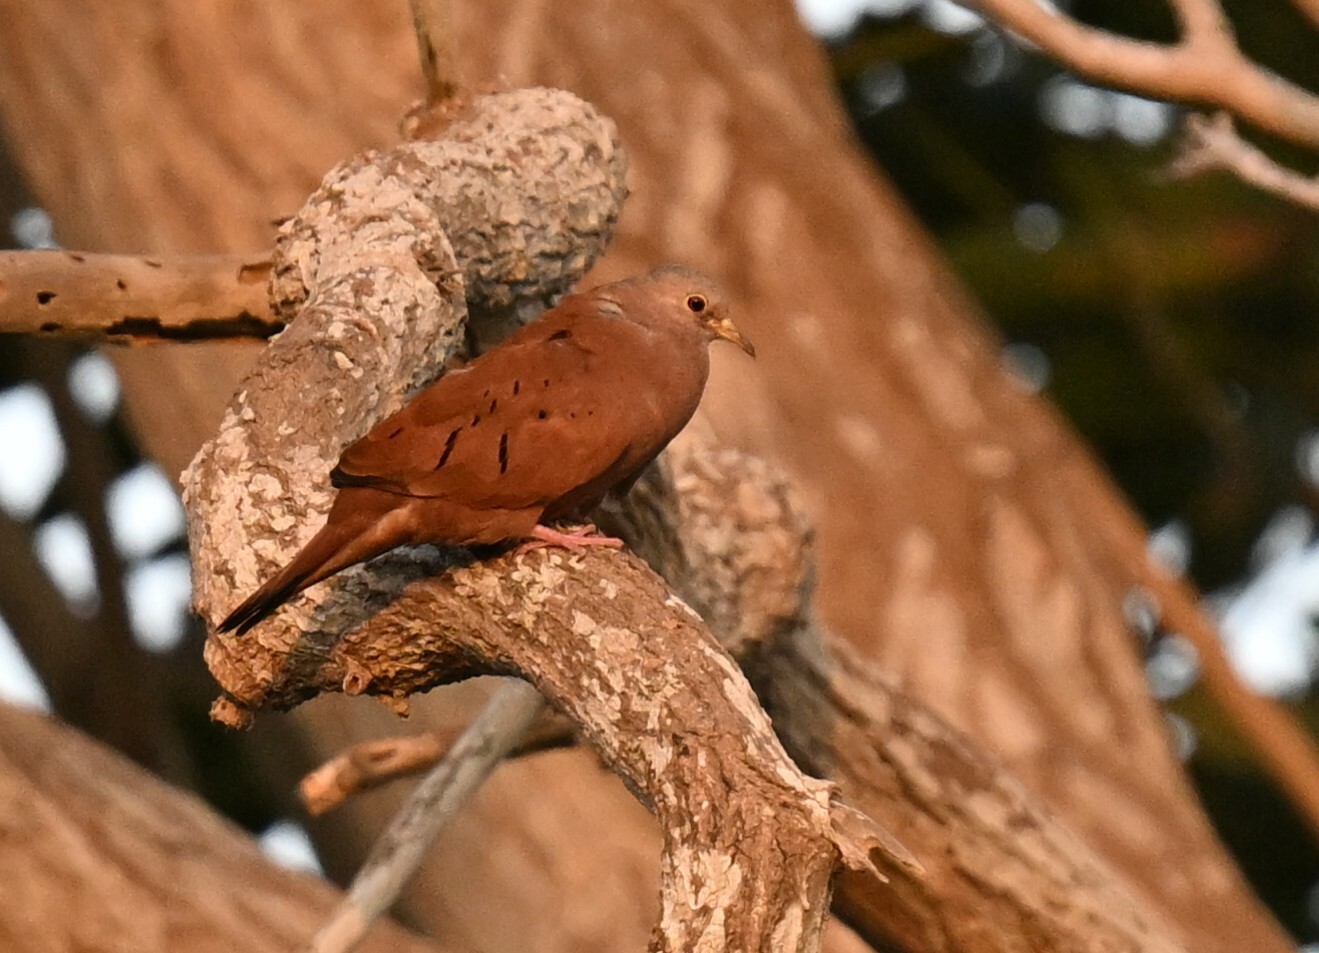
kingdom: Animalia
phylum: Chordata
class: Aves
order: Columbiformes
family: Columbidae
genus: Columbina
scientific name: Columbina talpacoti
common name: Ruddy ground dove
